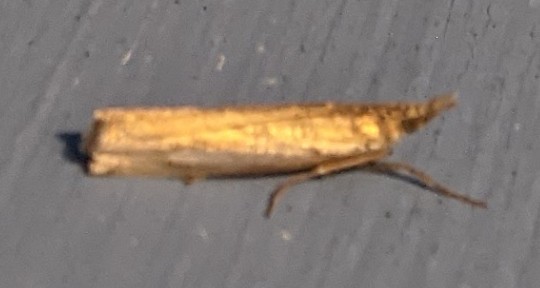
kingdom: Animalia
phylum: Arthropoda
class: Insecta
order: Lepidoptera
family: Crambidae
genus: Crambus
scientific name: Crambus
